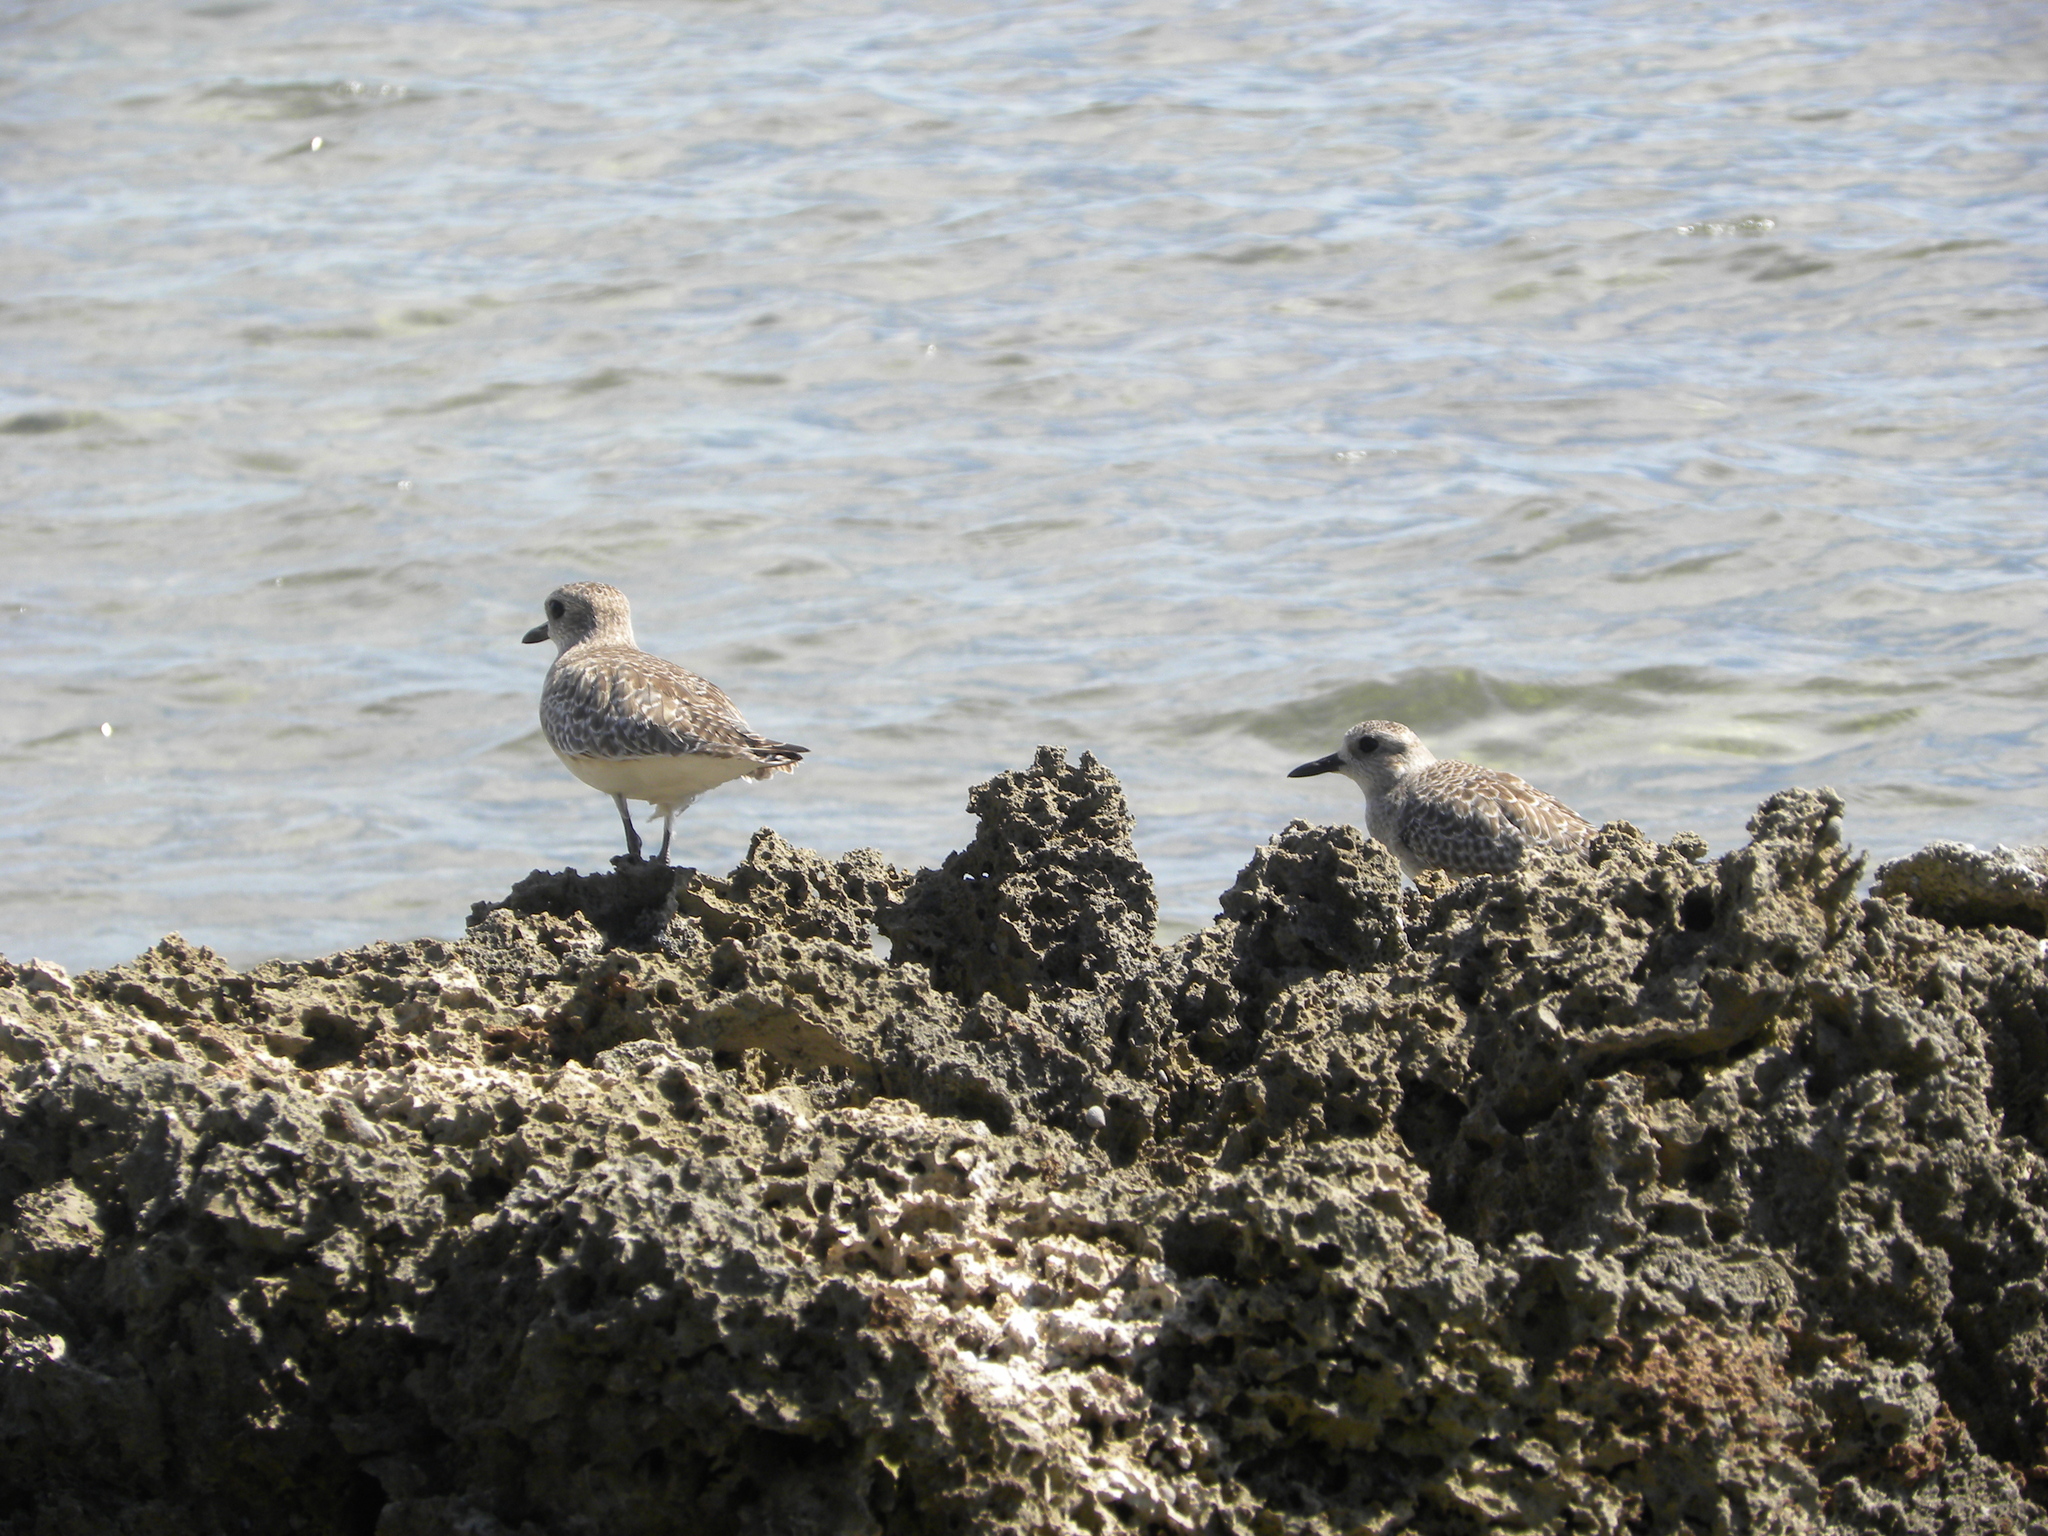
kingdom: Animalia
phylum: Chordata
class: Aves
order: Charadriiformes
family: Charadriidae
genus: Pluvialis
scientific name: Pluvialis squatarola
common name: Grey plover
